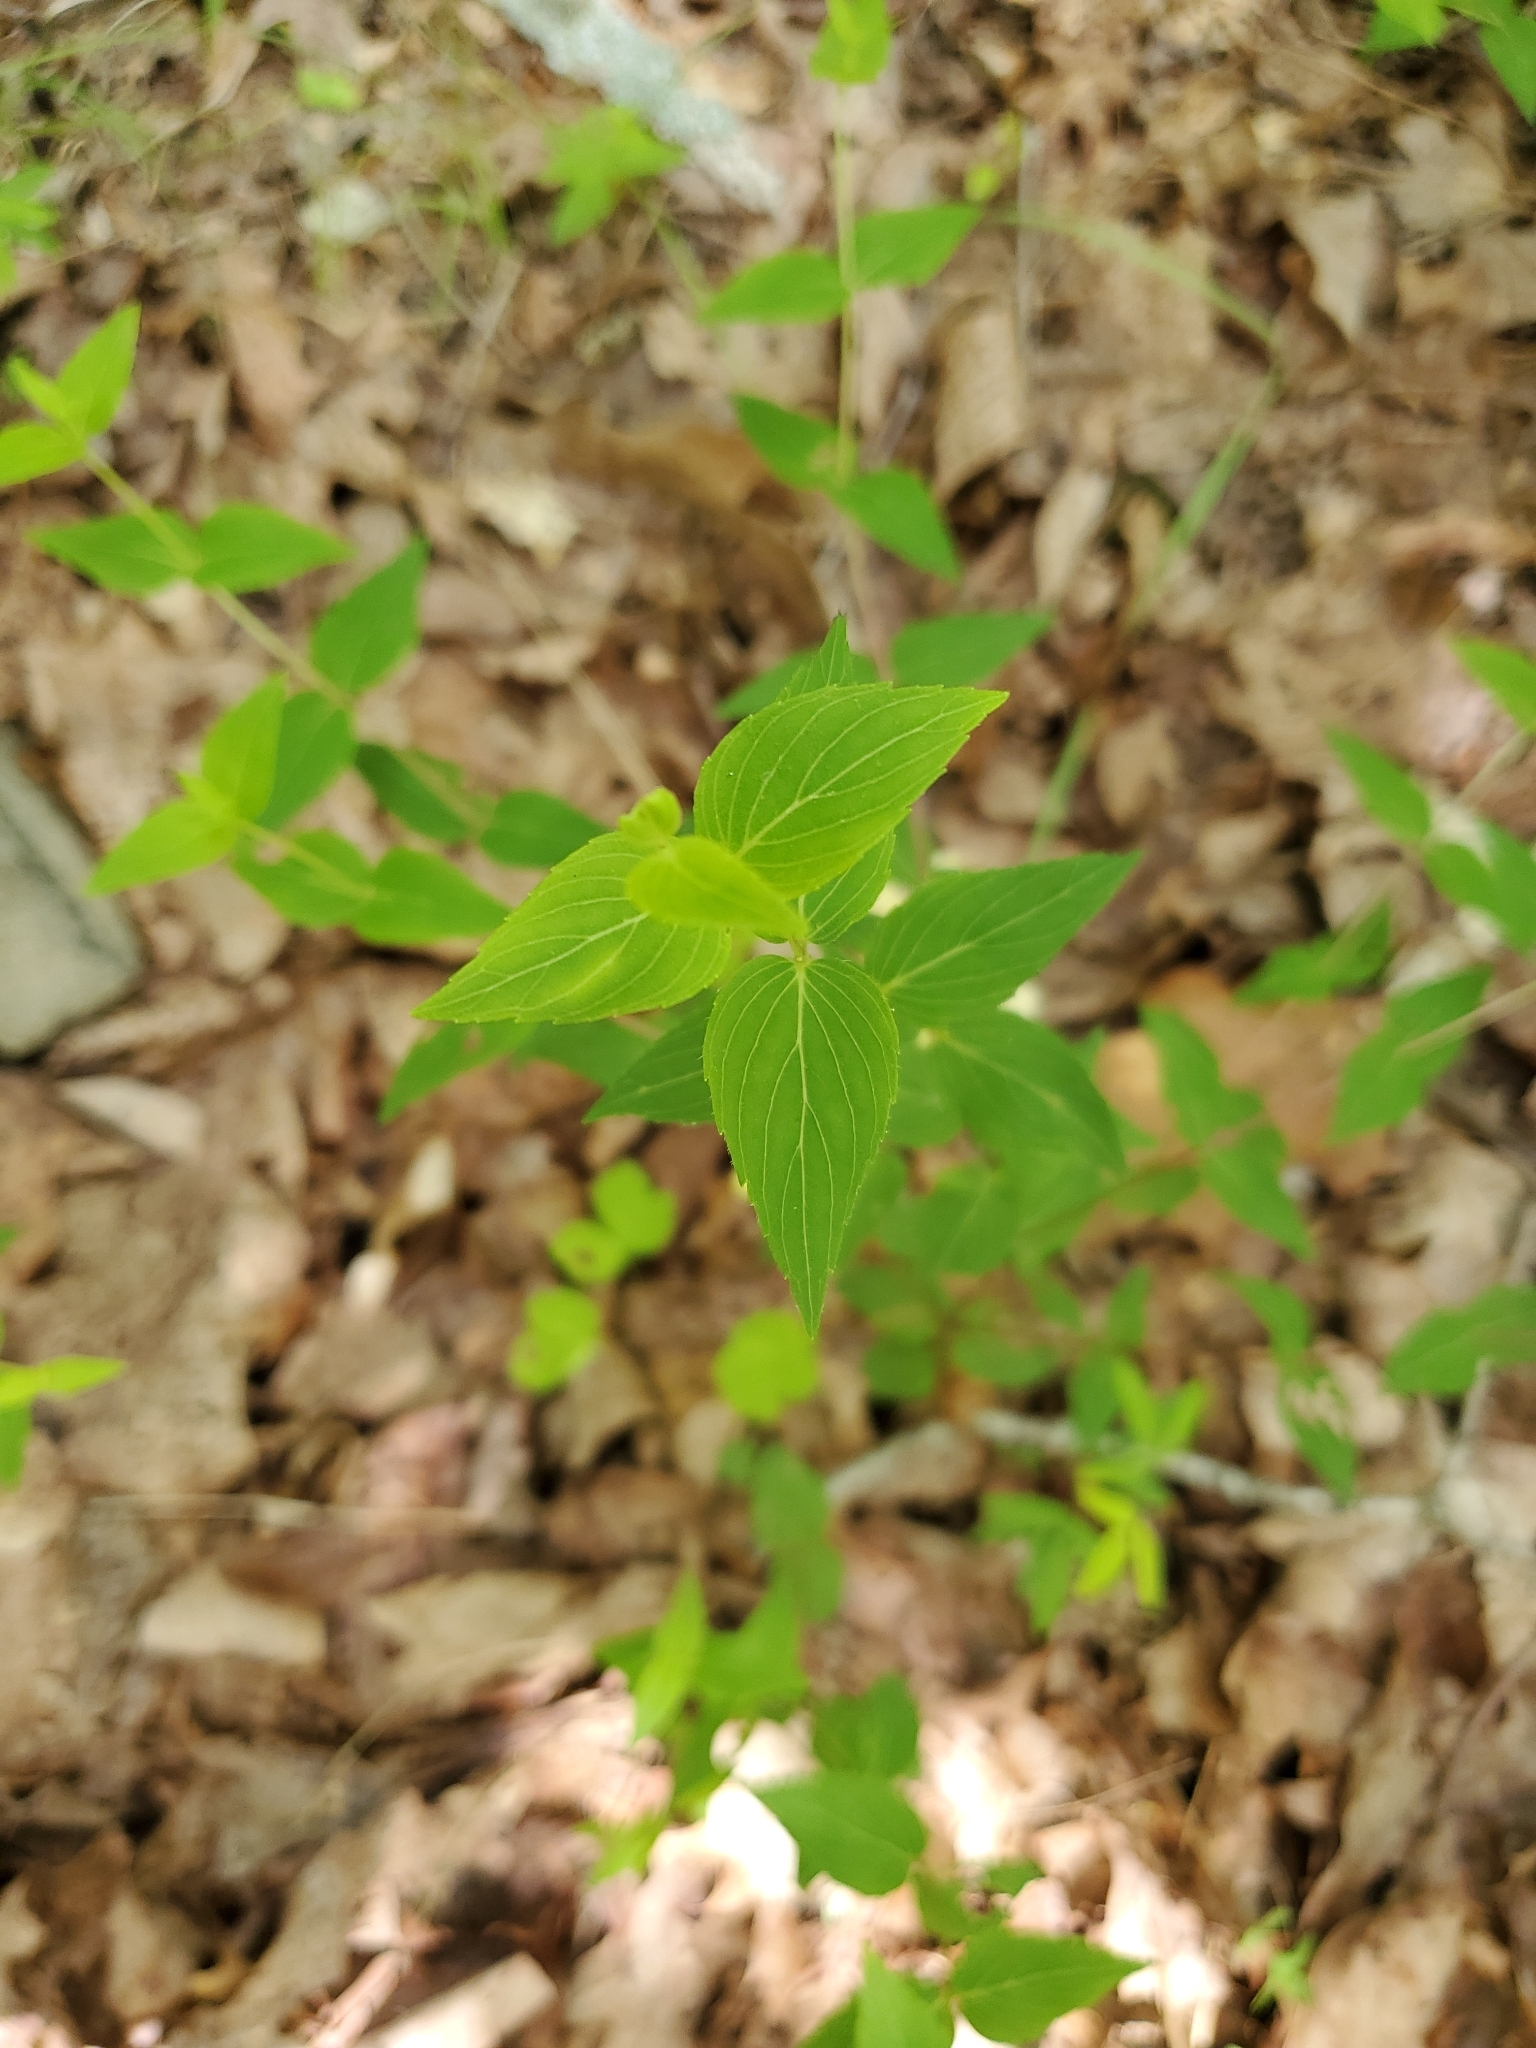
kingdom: Plantae
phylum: Tracheophyta
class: Magnoliopsida
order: Lamiales
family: Lamiaceae
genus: Cunila
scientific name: Cunila origanoides
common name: American dittany
